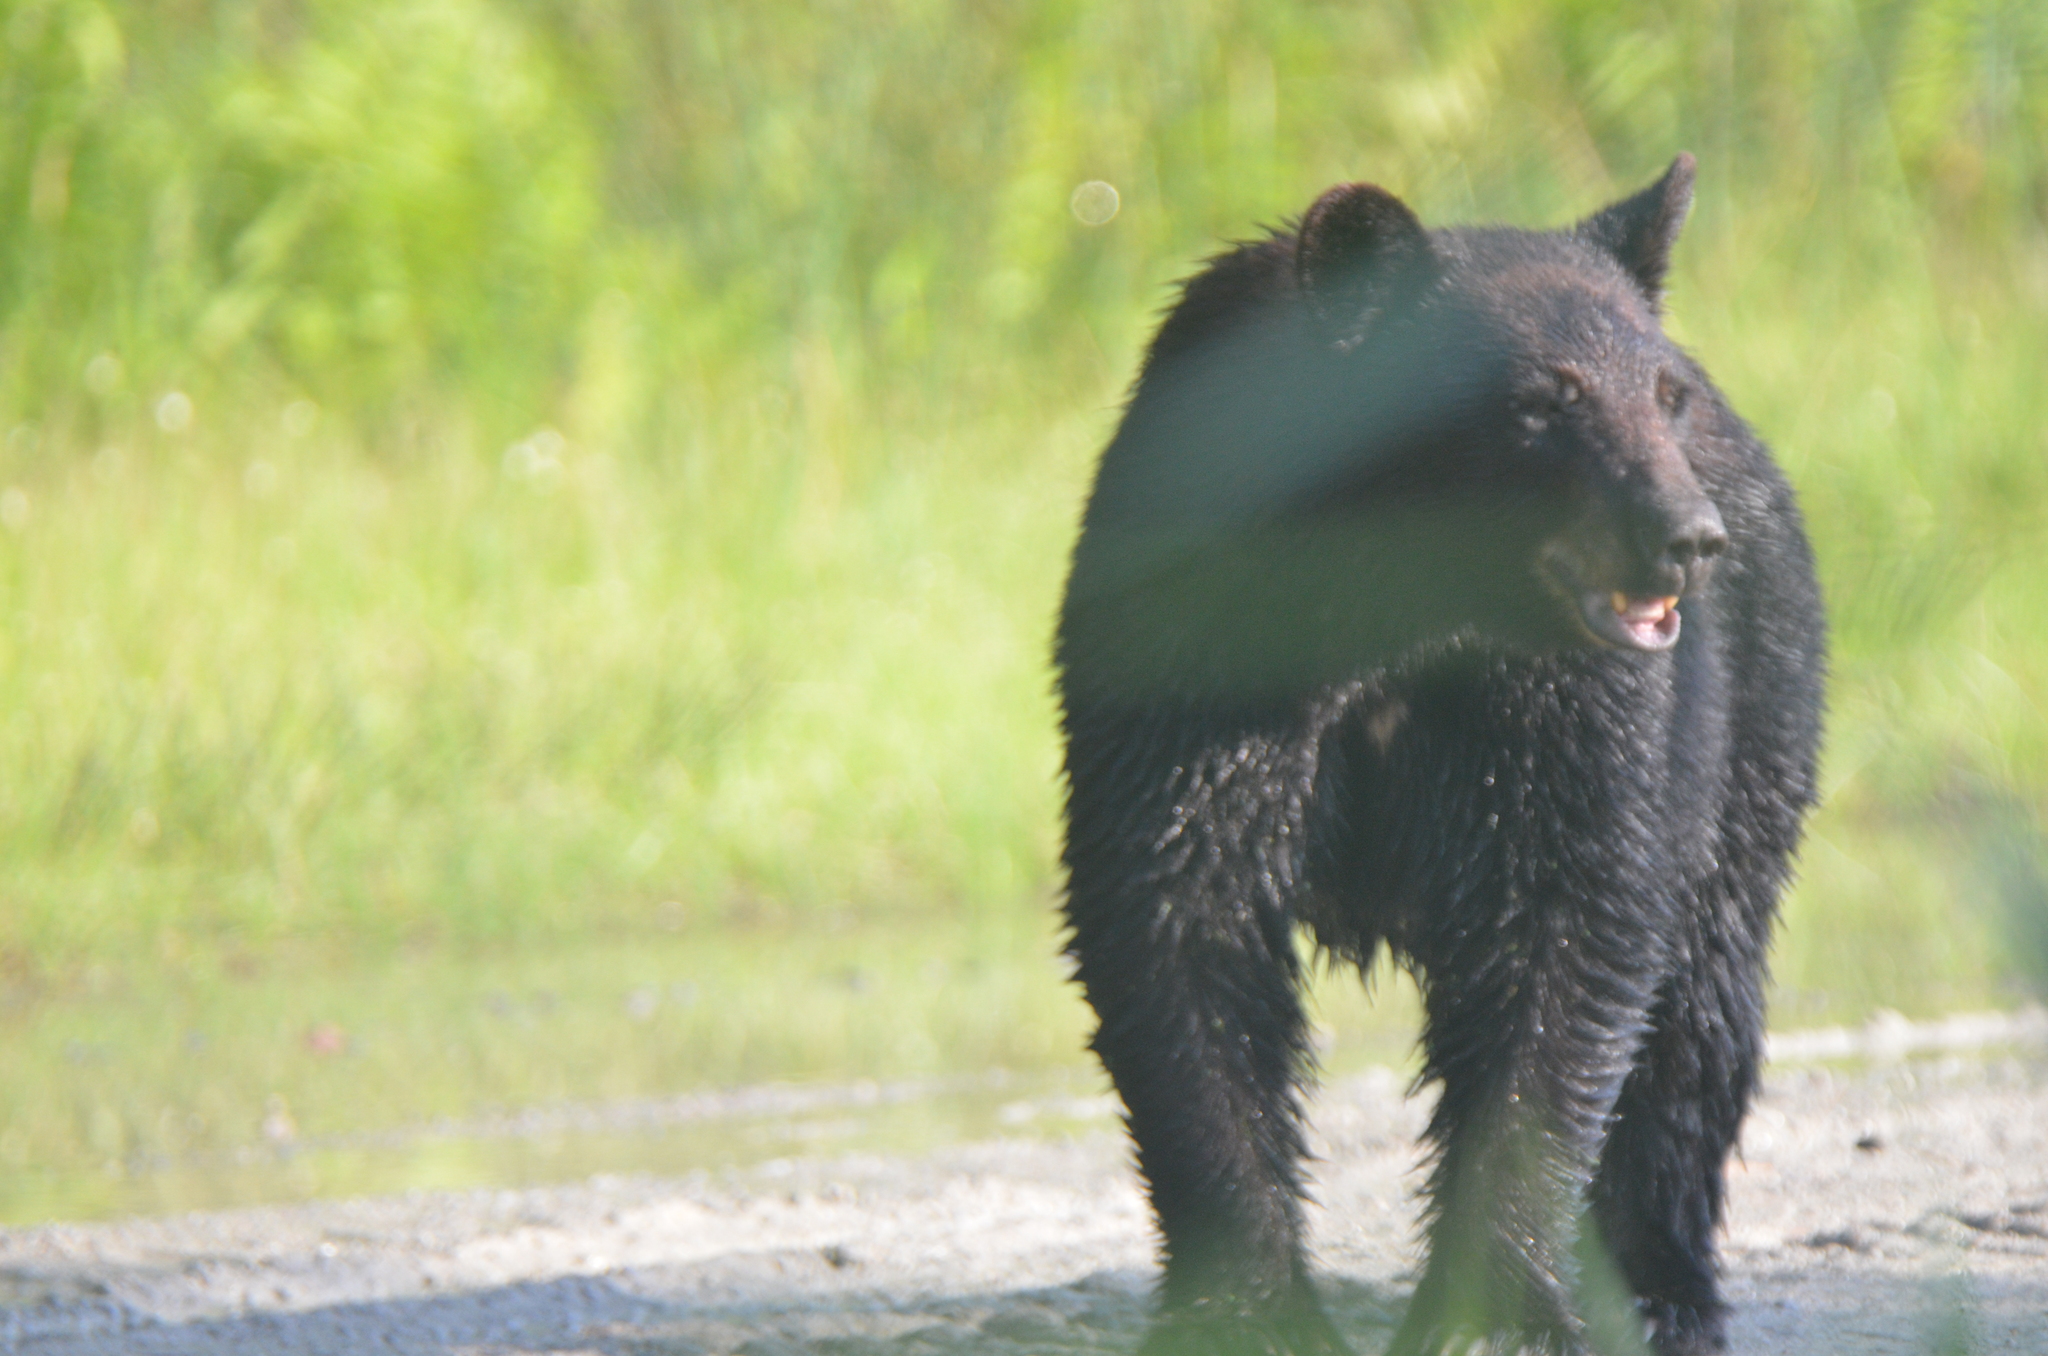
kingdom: Animalia
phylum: Chordata
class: Mammalia
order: Carnivora
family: Ursidae
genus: Ursus
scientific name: Ursus americanus
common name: American black bear
